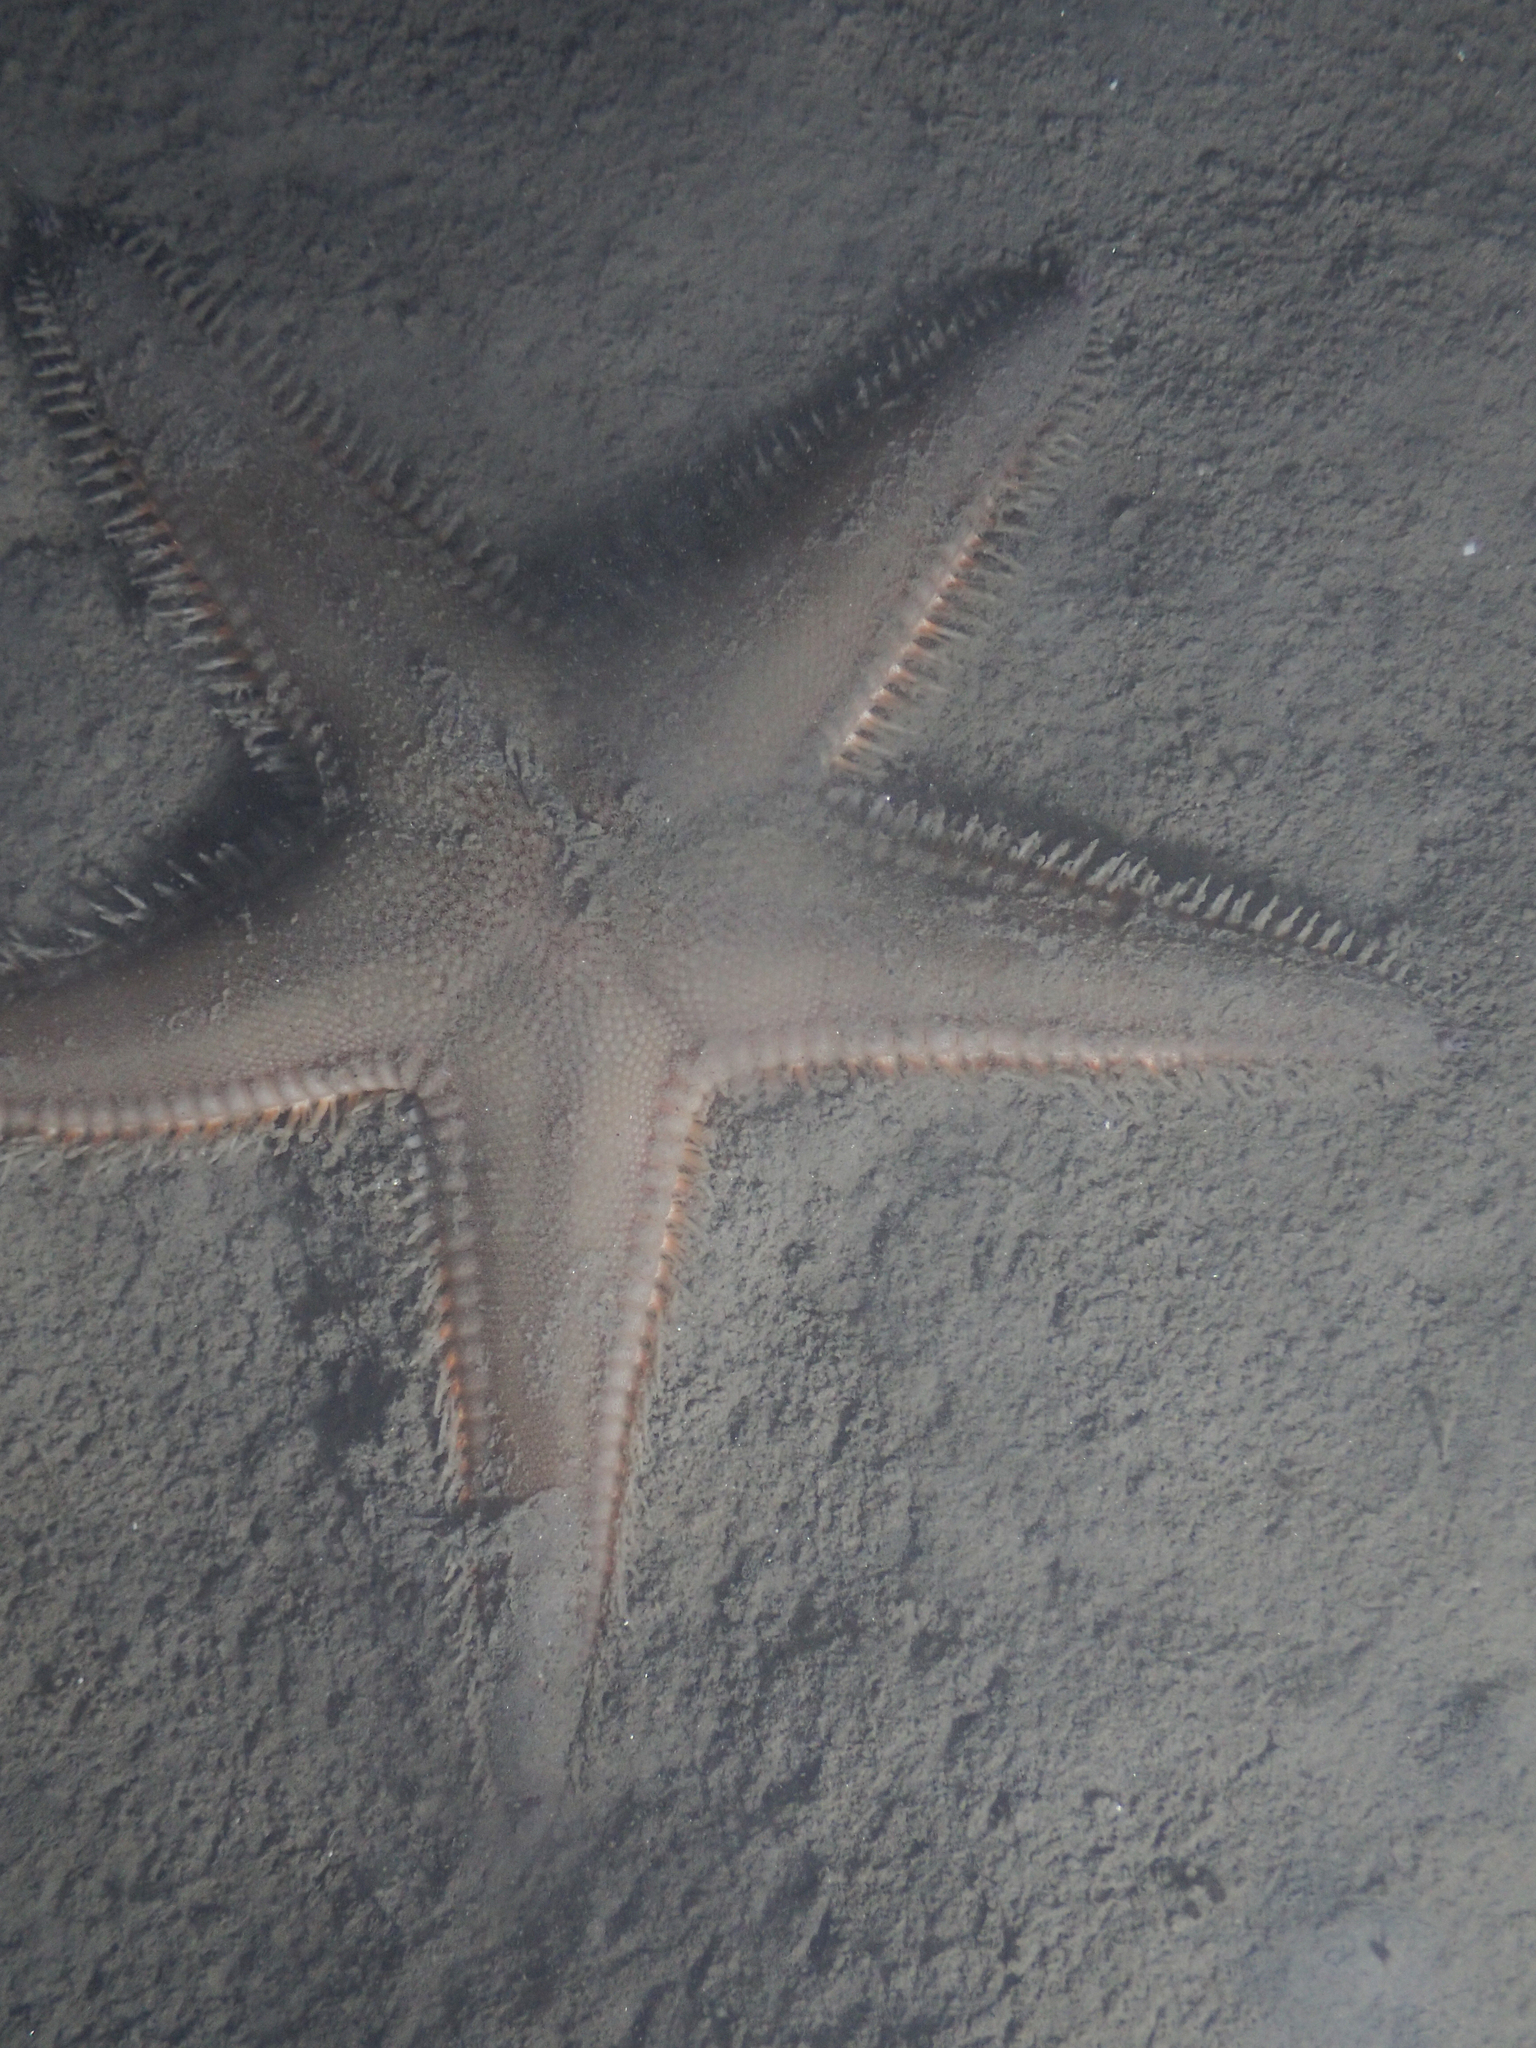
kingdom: Animalia
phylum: Echinodermata
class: Asteroidea
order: Paxillosida
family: Astropectinidae
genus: Astropecten
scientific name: Astropecten irregularis
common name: Sand star
